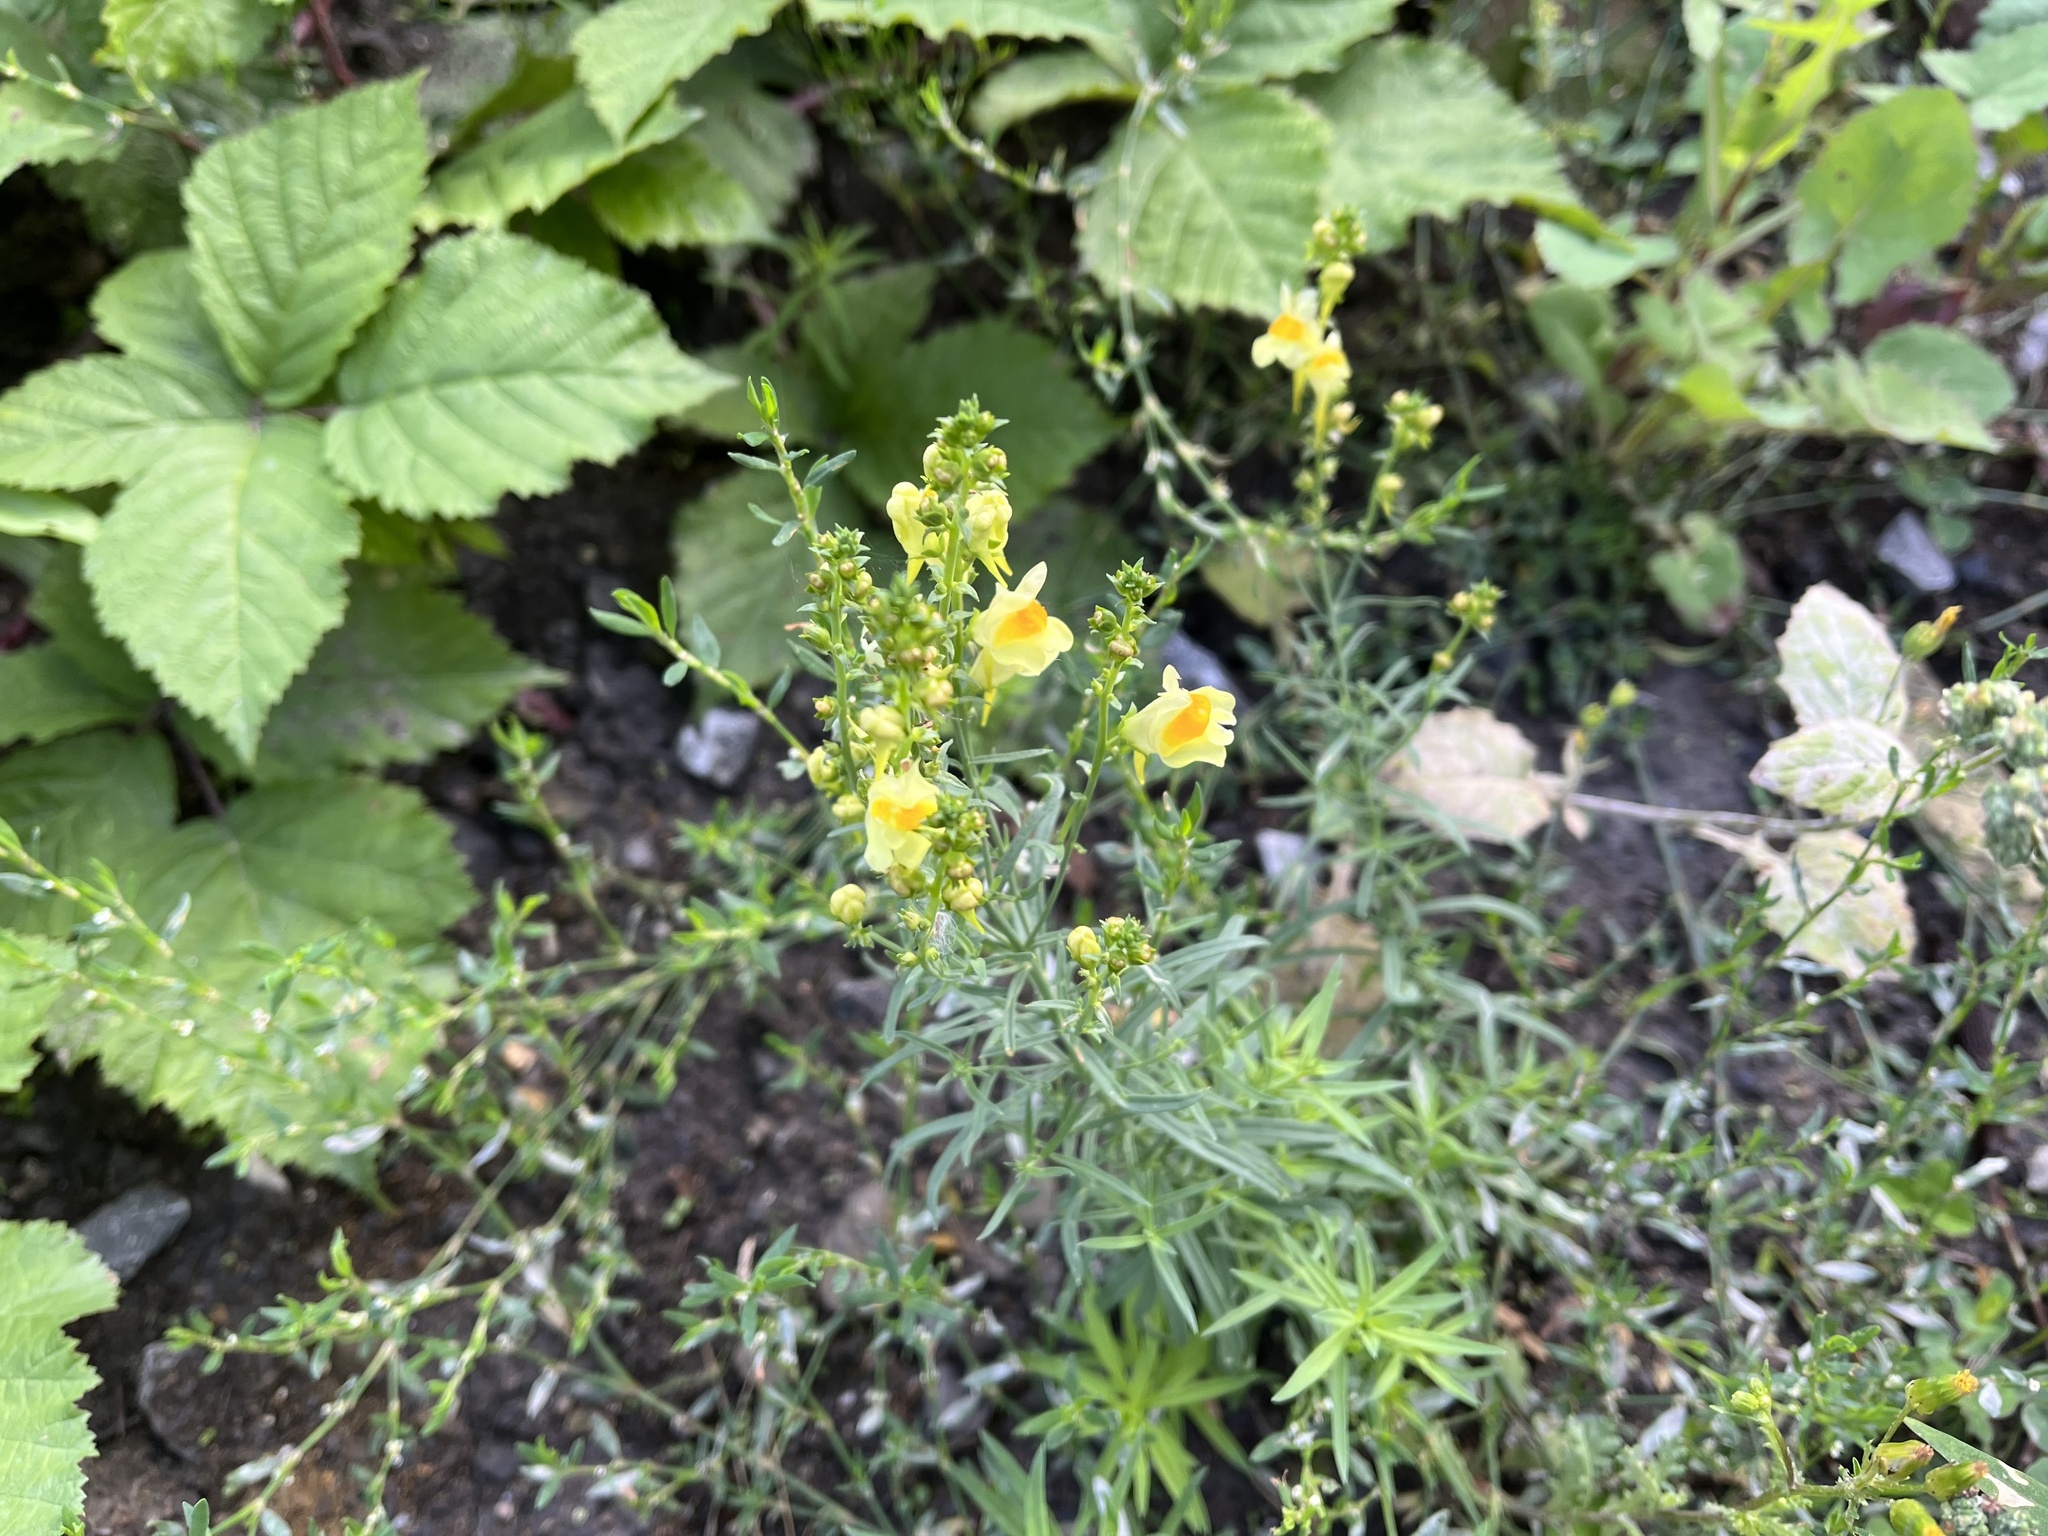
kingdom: Plantae
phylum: Tracheophyta
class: Magnoliopsida
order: Lamiales
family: Plantaginaceae
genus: Linaria
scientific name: Linaria vulgaris
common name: Butter and eggs
